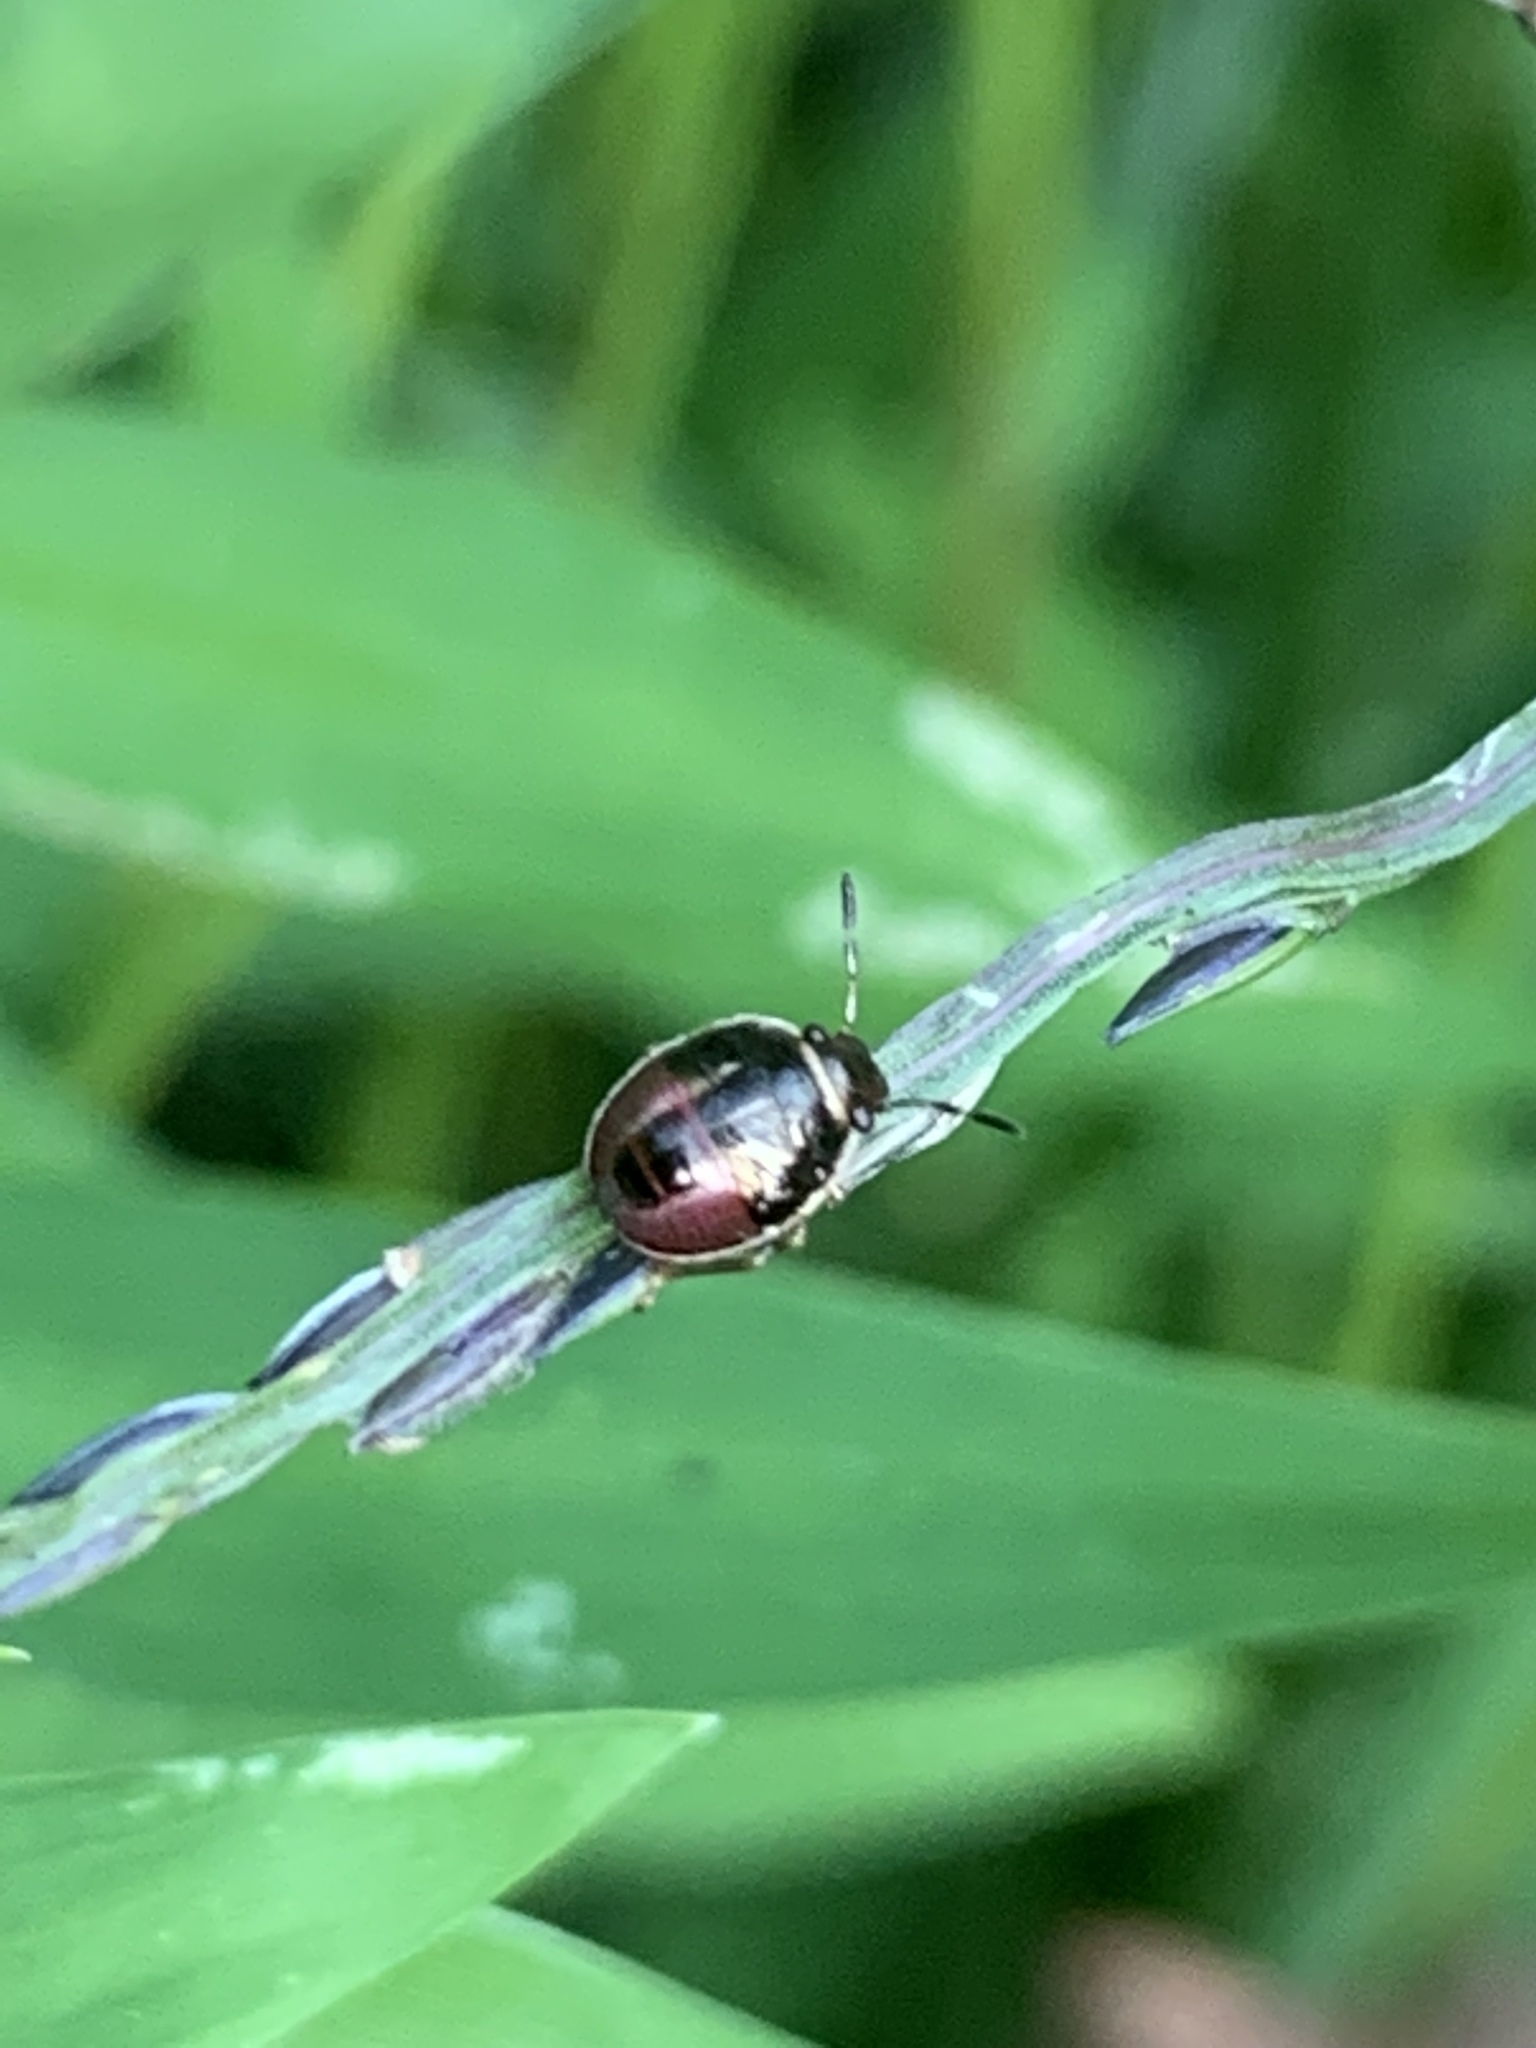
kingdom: Animalia
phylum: Arthropoda
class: Insecta
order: Hemiptera
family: Pentatomidae
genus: Mormidea
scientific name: Mormidea lugens
